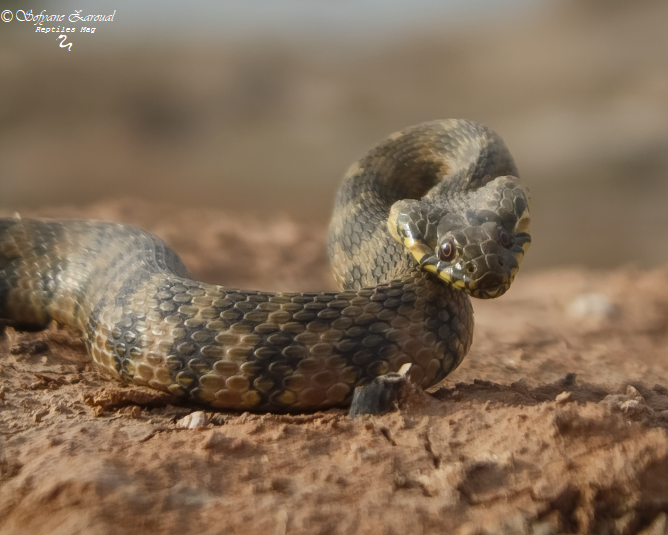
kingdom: Animalia
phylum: Chordata
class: Squamata
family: Colubridae
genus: Natrix
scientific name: Natrix maura
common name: Viperine water snake
